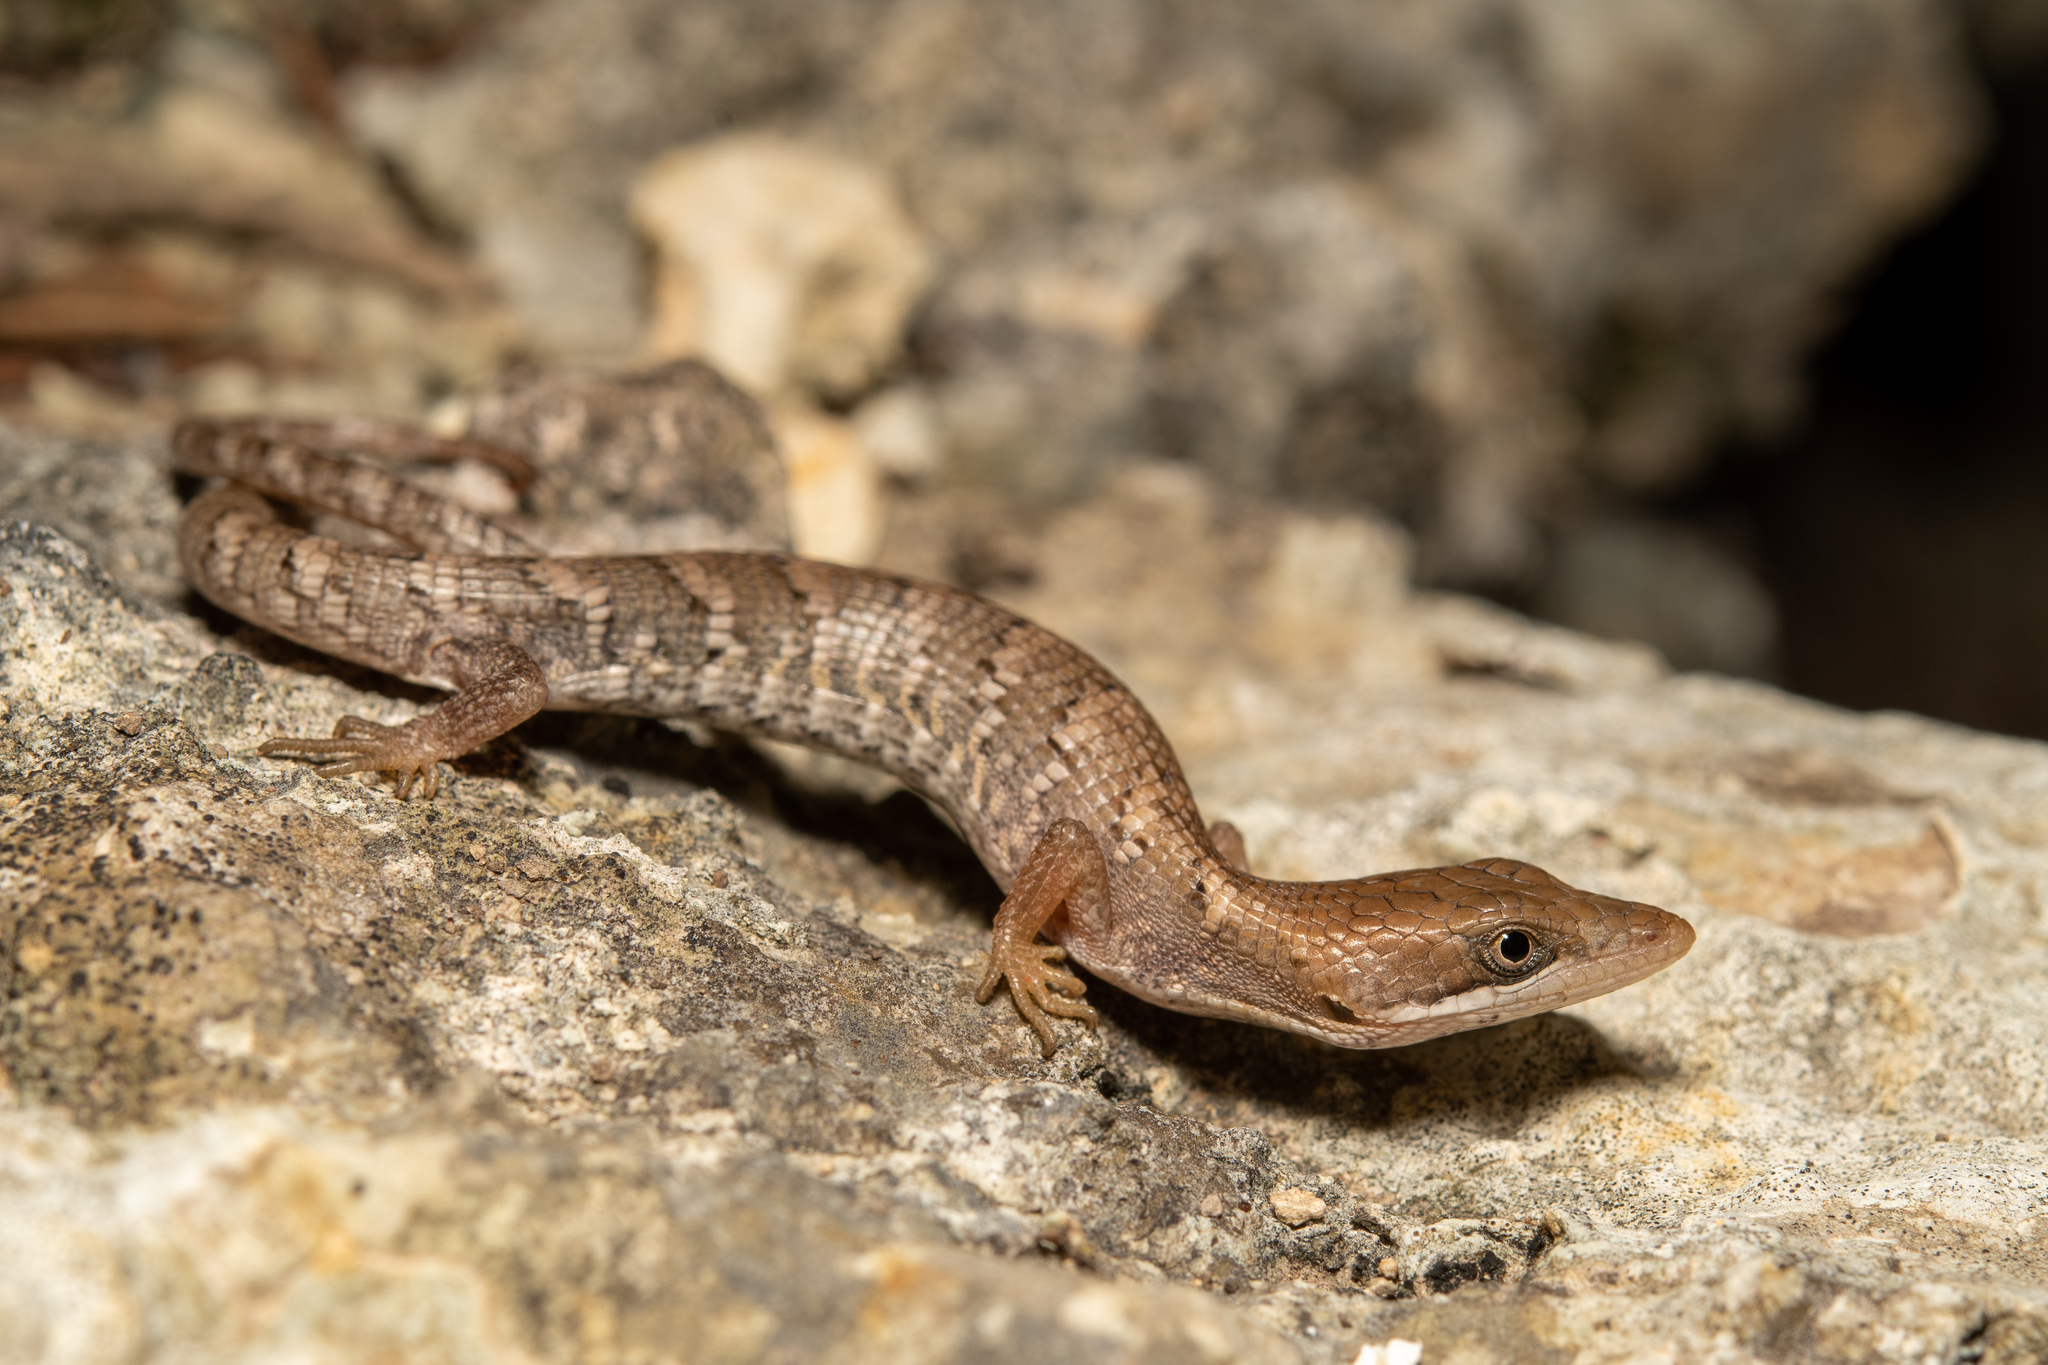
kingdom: Animalia
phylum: Chordata
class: Squamata
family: Anguidae
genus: Gerrhonotus
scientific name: Gerrhonotus infernalis
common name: Texas alligator lizard
